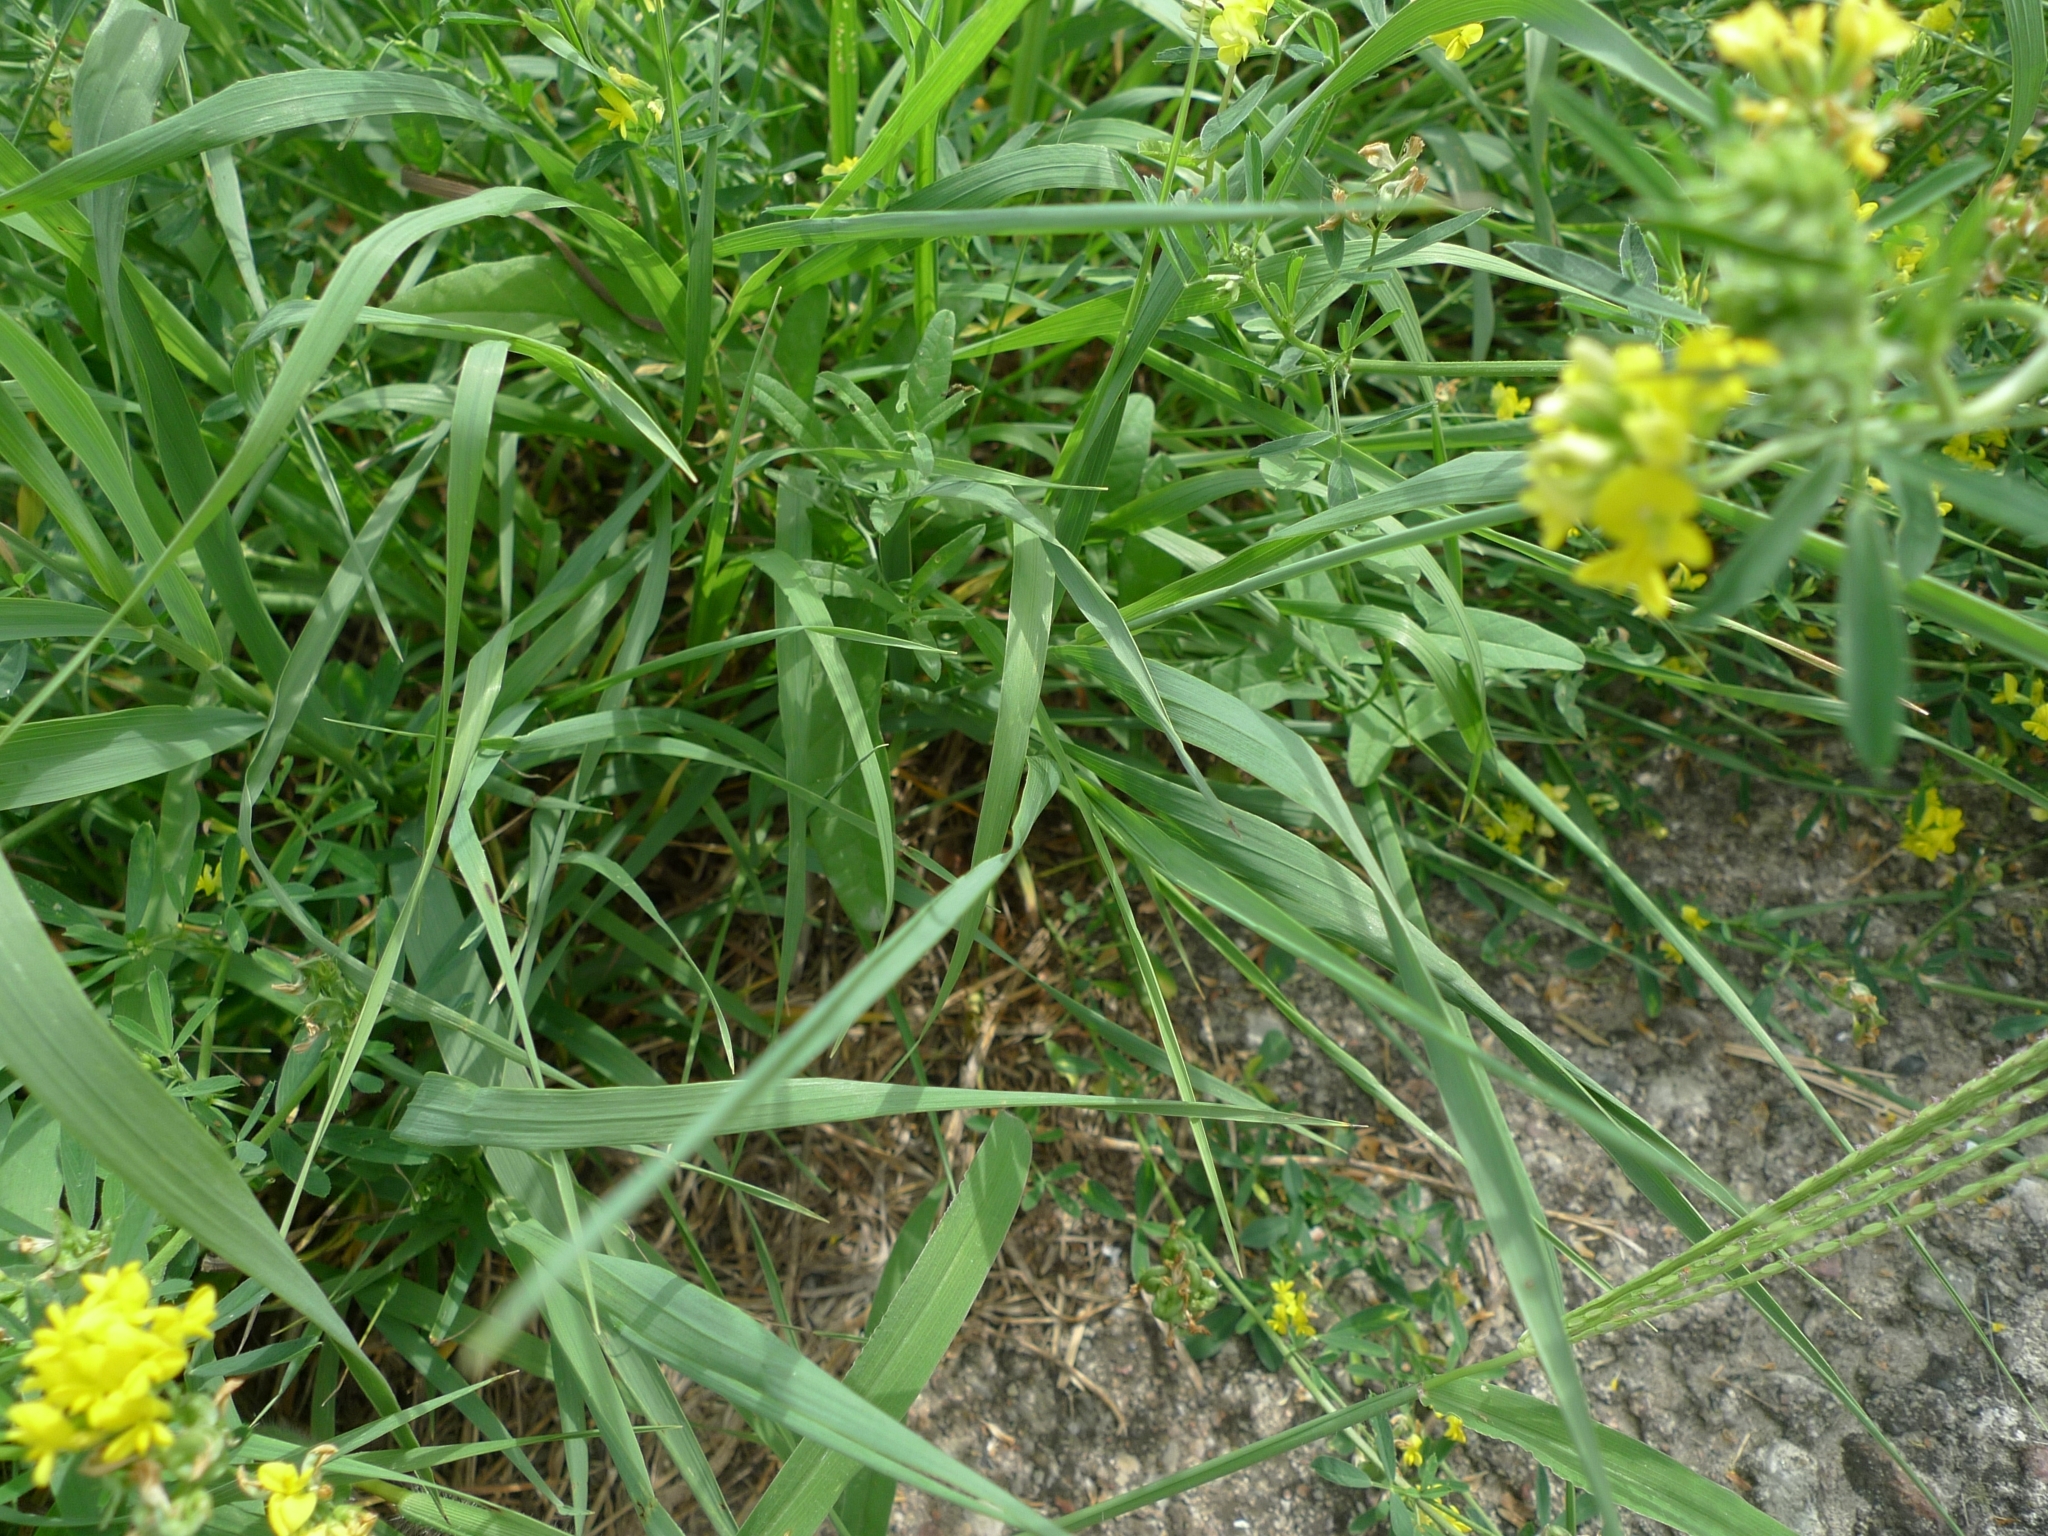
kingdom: Plantae
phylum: Tracheophyta
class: Liliopsida
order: Poales
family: Poaceae
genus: Digitaria
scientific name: Digitaria sanguinalis
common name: Hairy crabgrass
